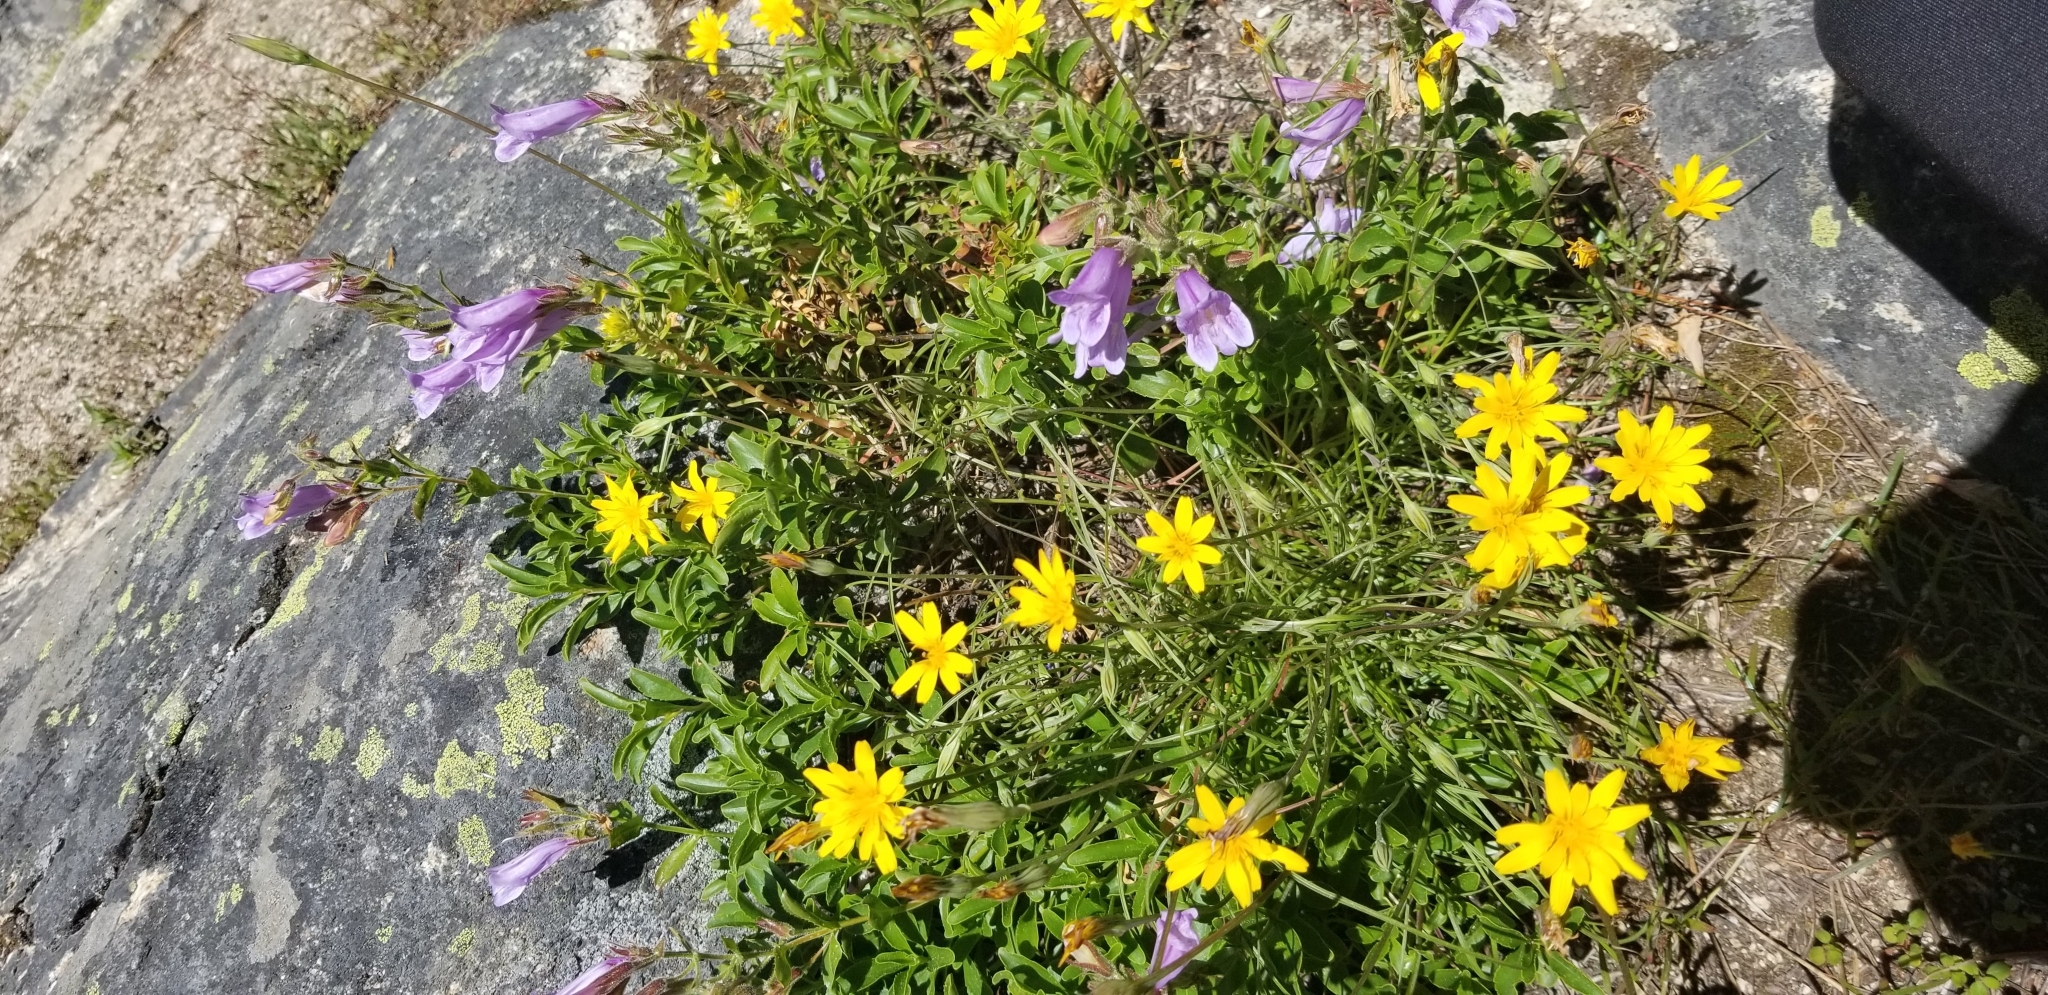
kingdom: Plantae
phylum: Tracheophyta
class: Magnoliopsida
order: Lamiales
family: Plantaginaceae
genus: Penstemon
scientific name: Penstemon ellipticus
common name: Alpine beardtongue
